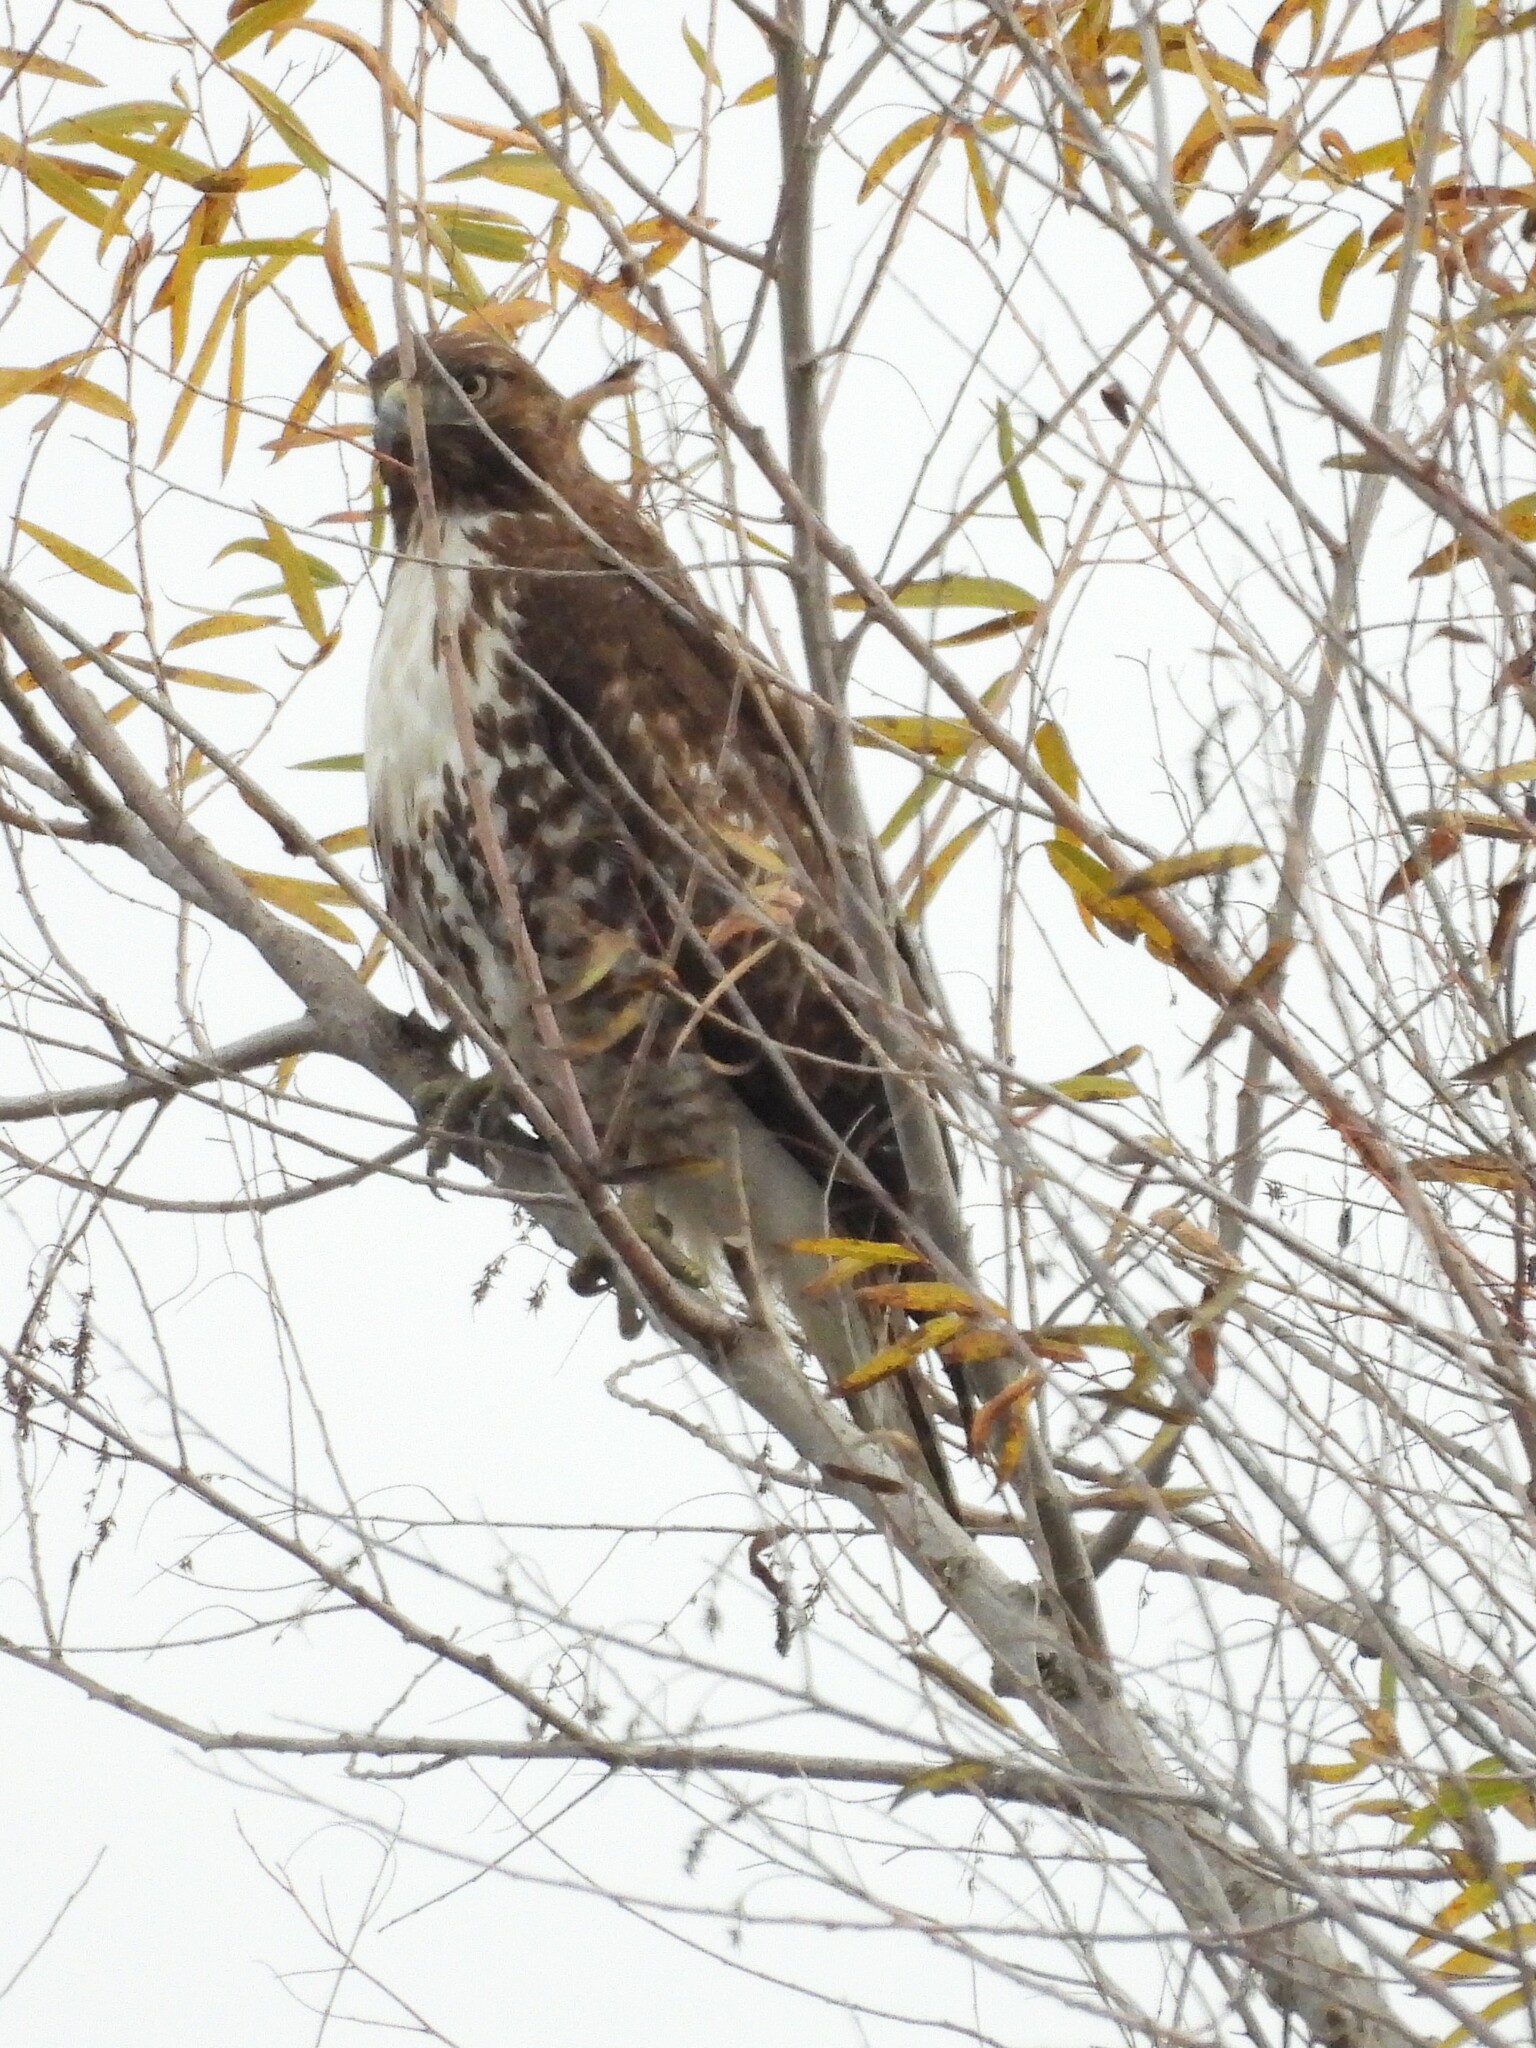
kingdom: Animalia
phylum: Chordata
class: Aves
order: Accipitriformes
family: Accipitridae
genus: Buteo
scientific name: Buteo jamaicensis
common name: Red-tailed hawk
